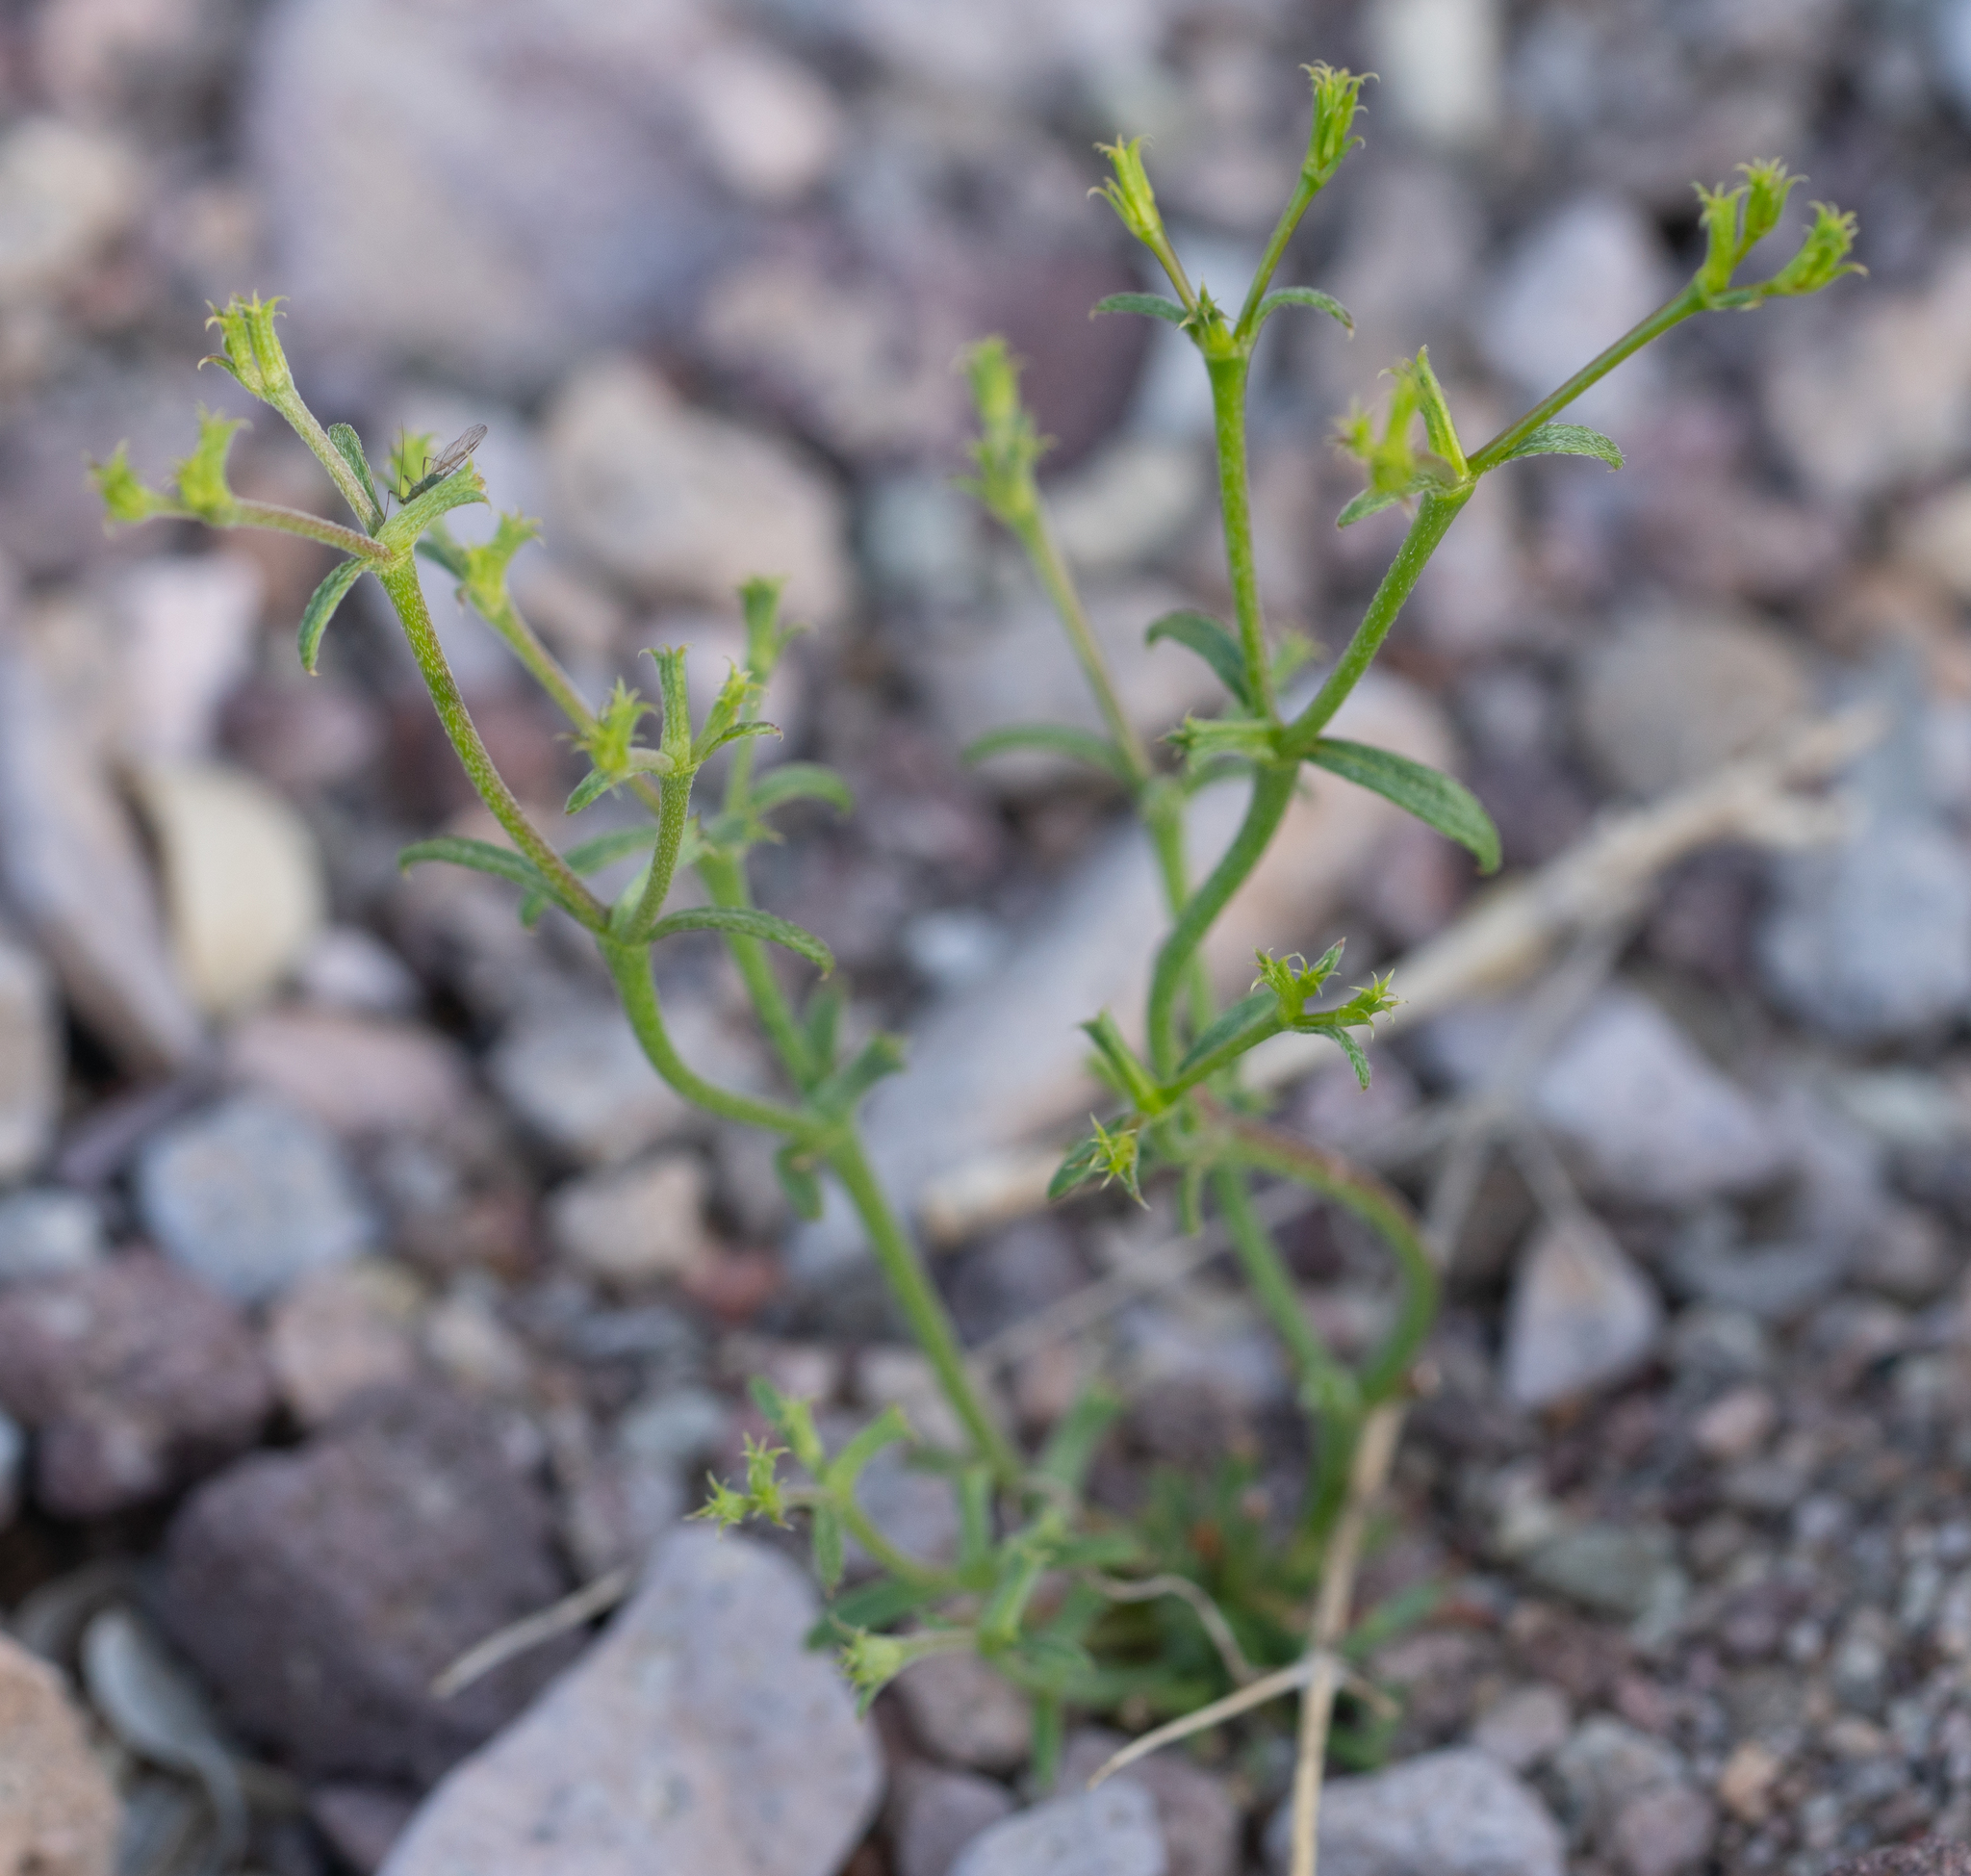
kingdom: Plantae
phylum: Tracheophyta
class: Magnoliopsida
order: Caryophyllales
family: Polygonaceae
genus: Chorizanthe
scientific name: Chorizanthe brevicornu
